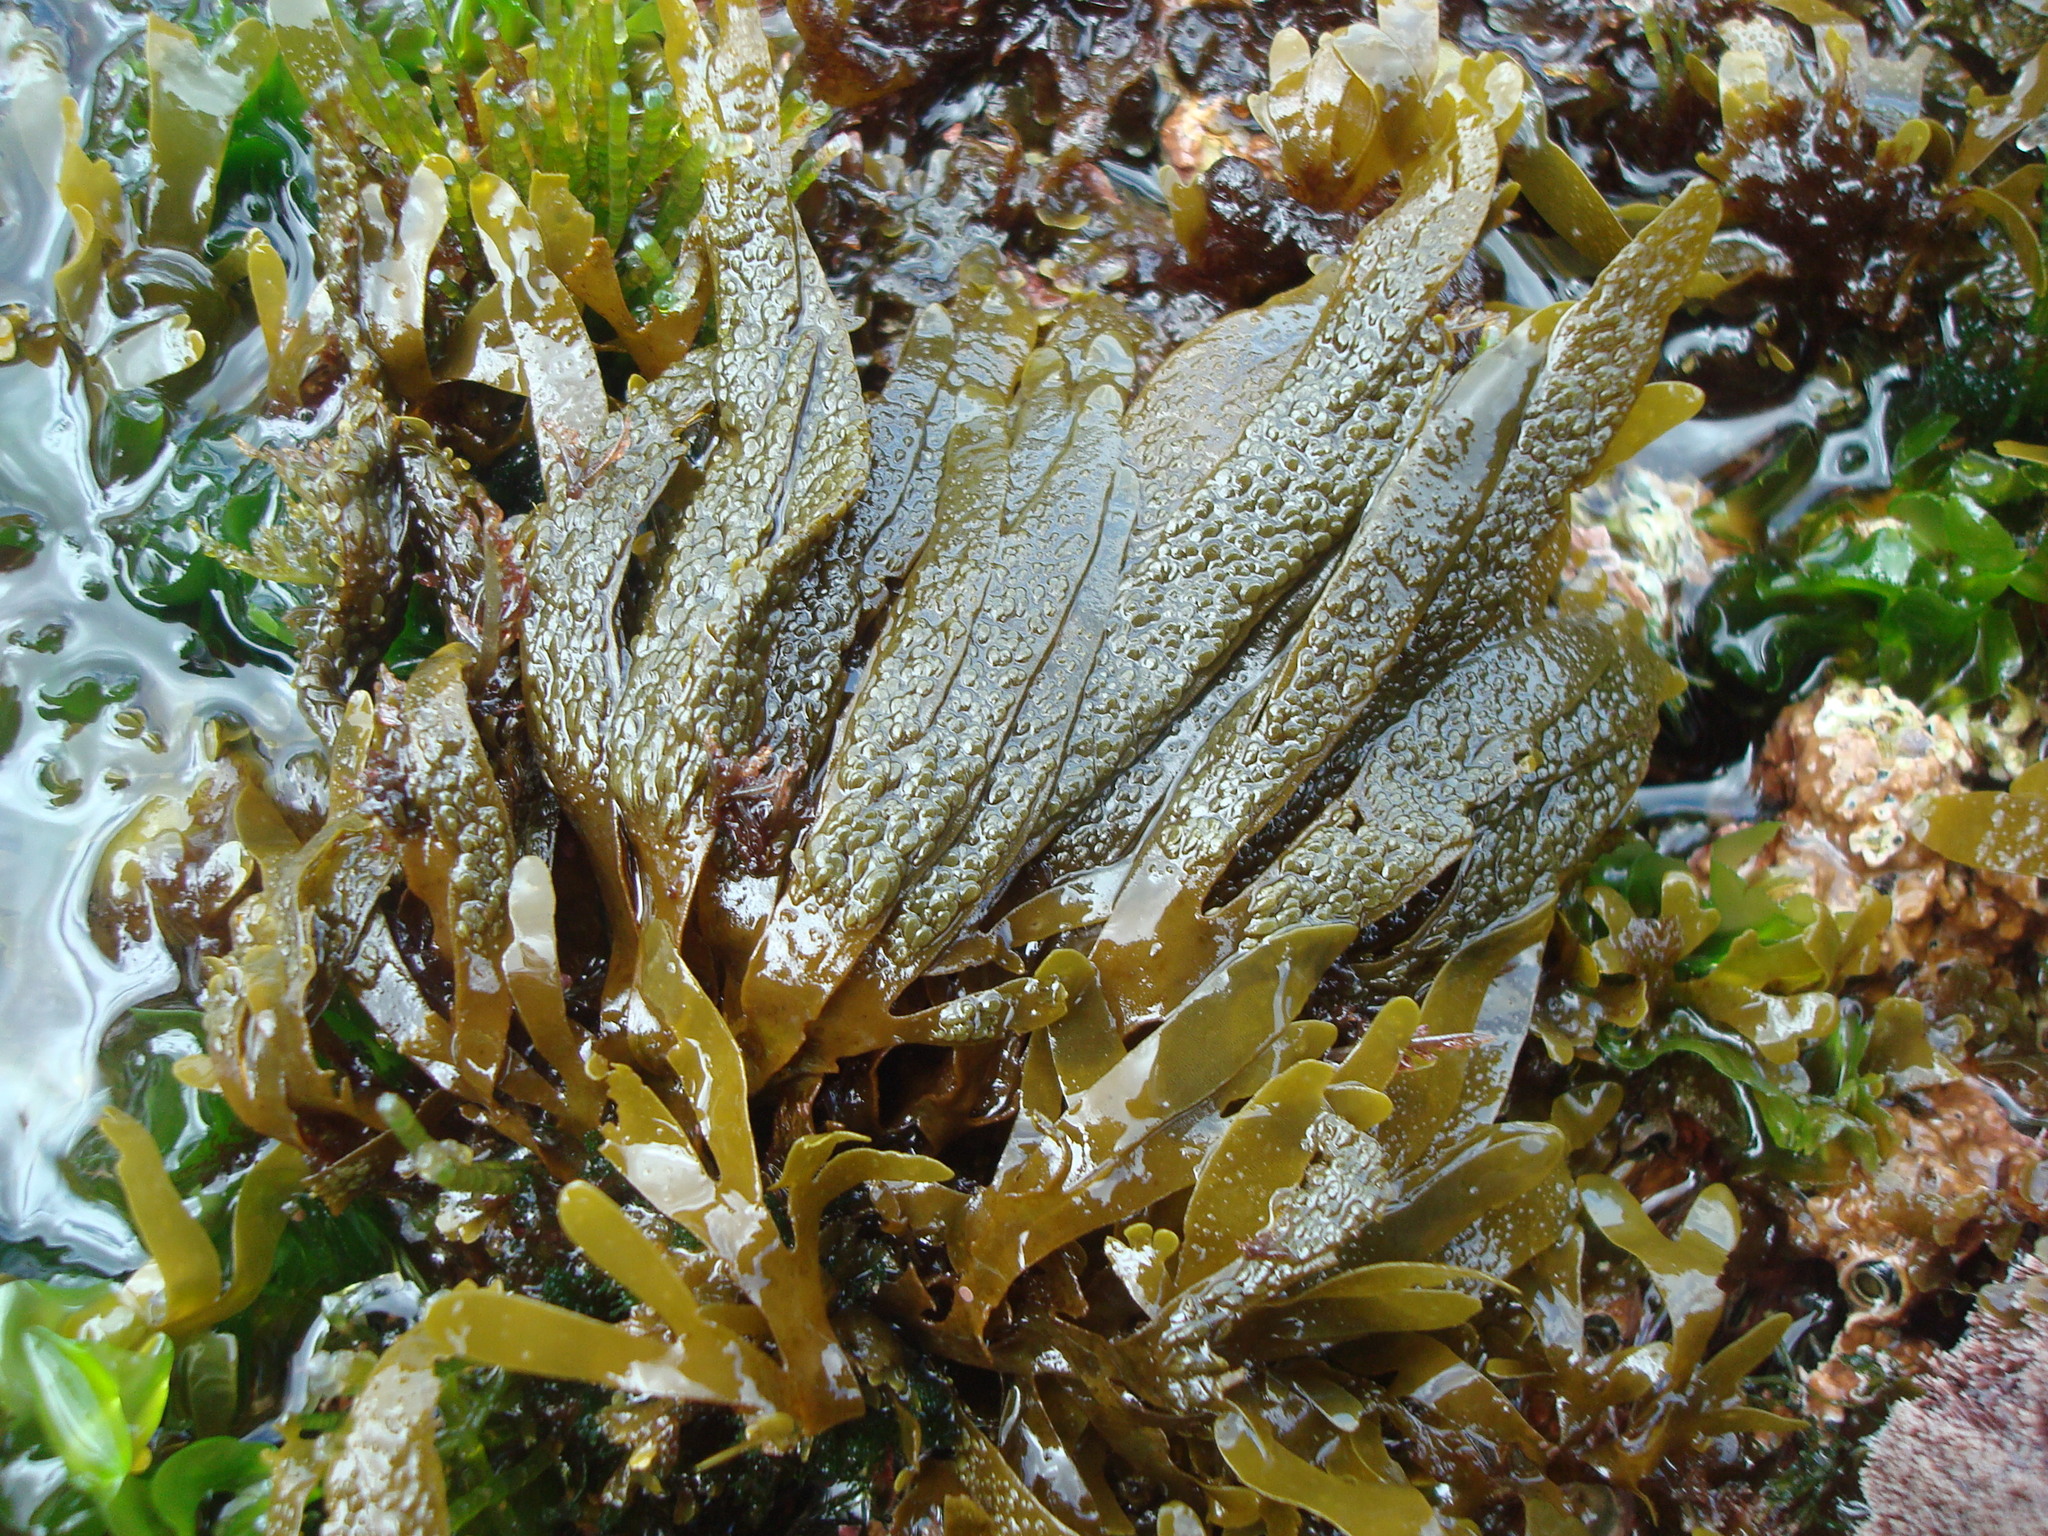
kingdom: Chromista
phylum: Ochrophyta
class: Phaeophyceae
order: Dictyotales
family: Dictyotaceae
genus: Dictyota
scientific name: Dictyota kunthii
